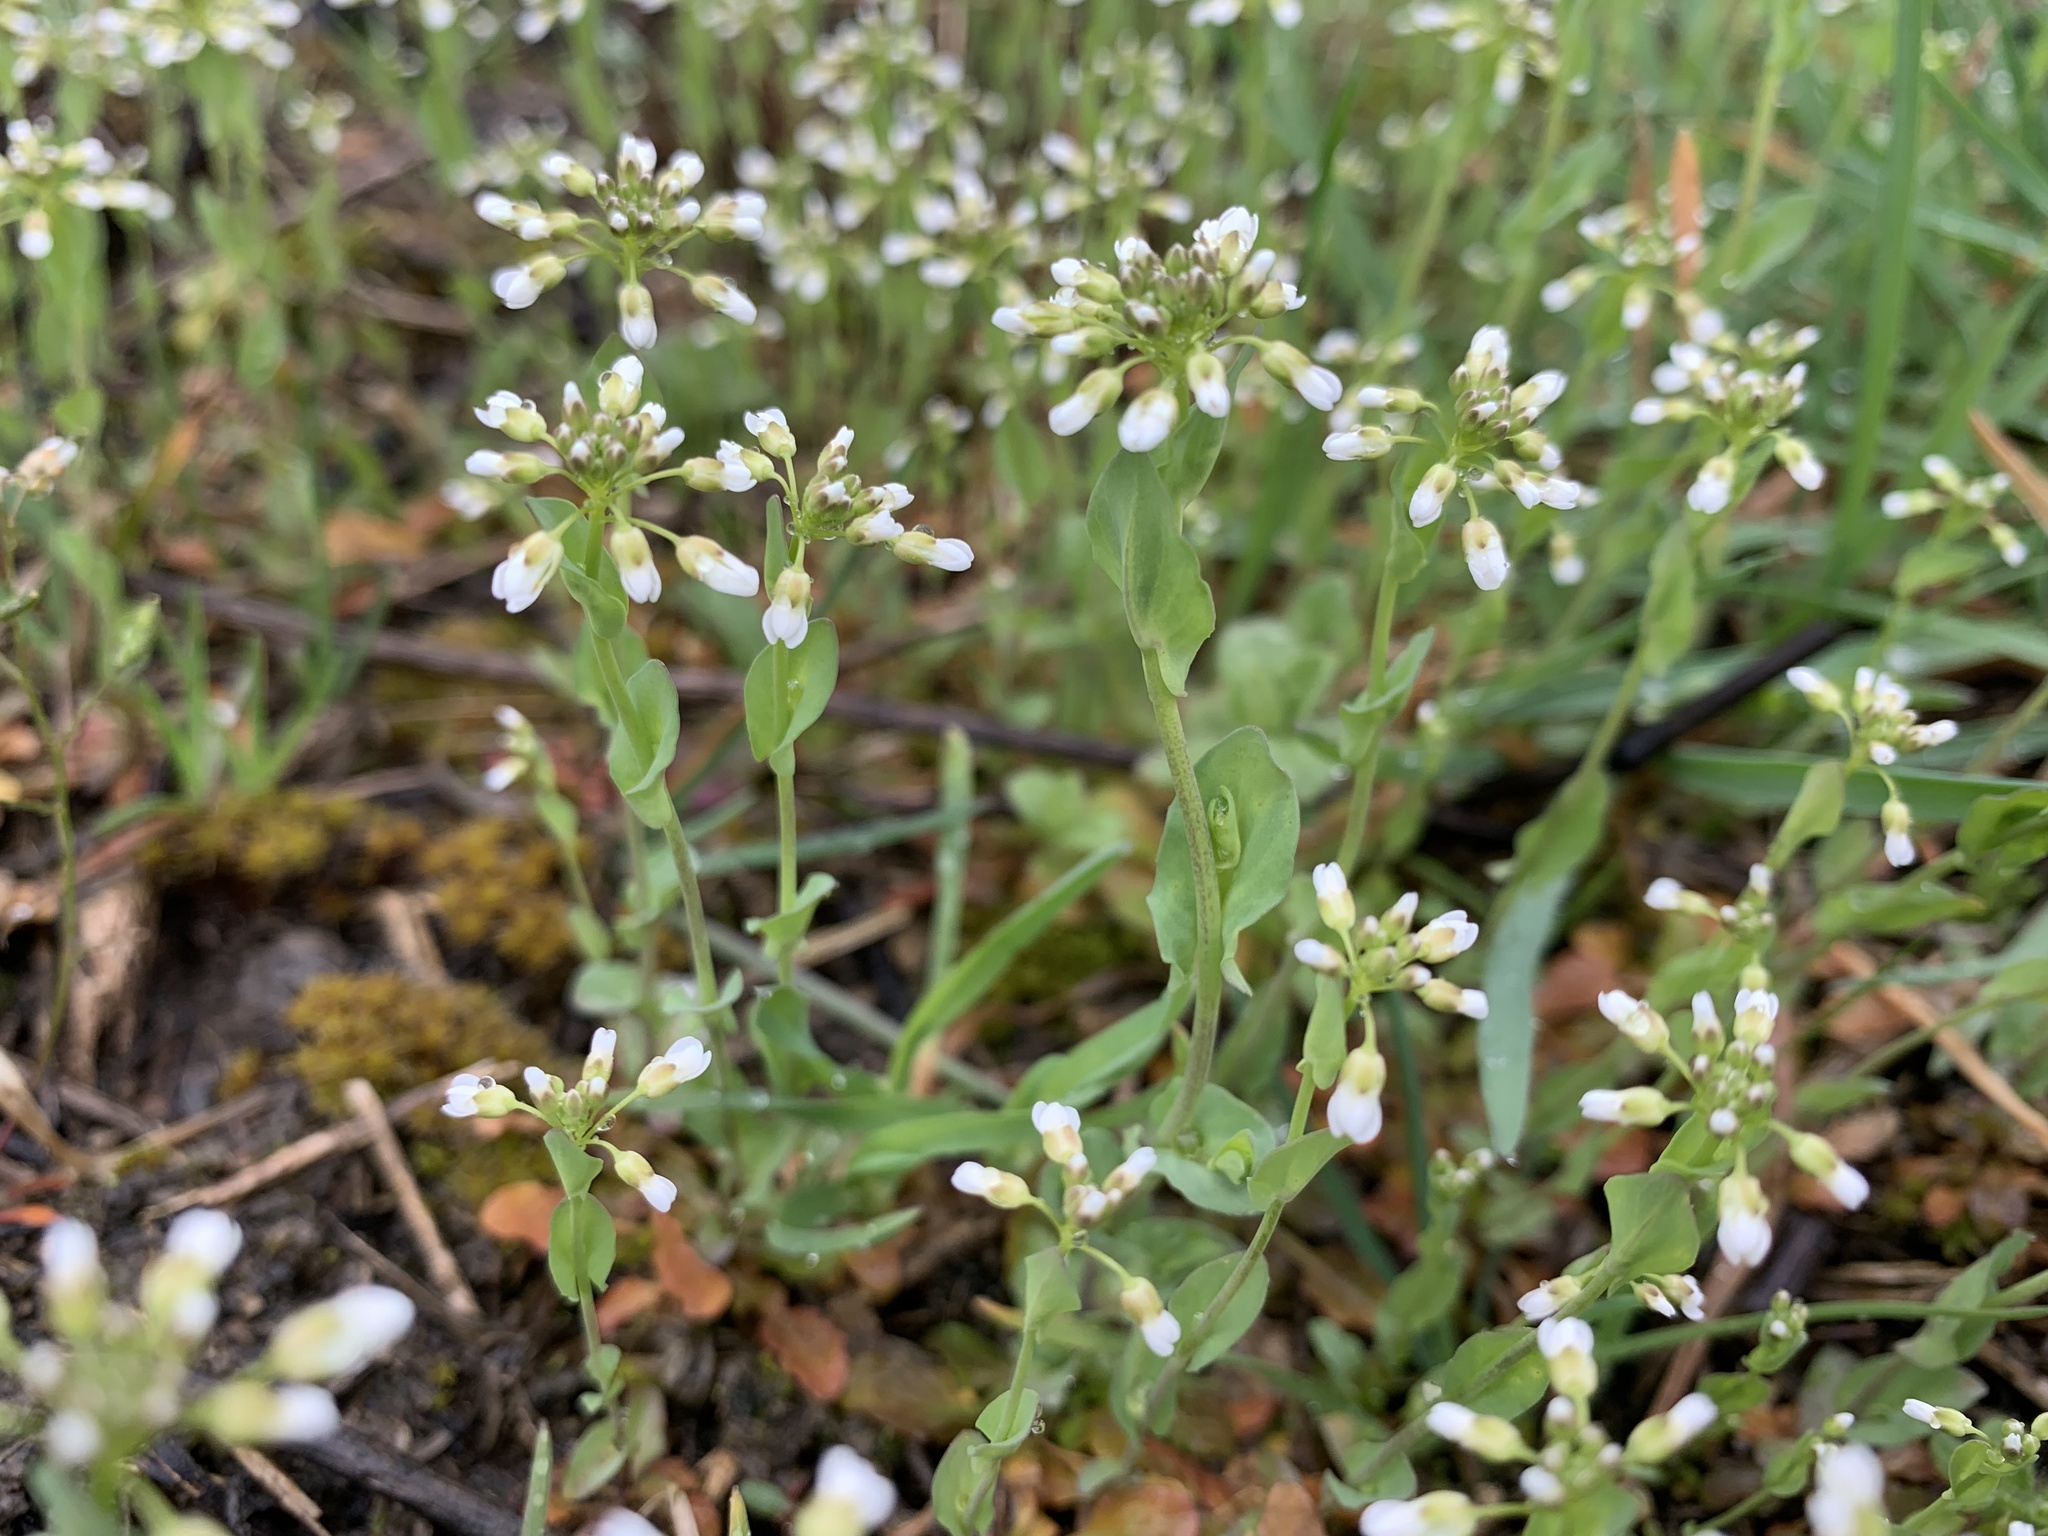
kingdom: Plantae
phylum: Tracheophyta
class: Magnoliopsida
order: Brassicales
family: Brassicaceae
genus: Noccaea
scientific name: Noccaea perfoliata
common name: Perfoliate pennycress
